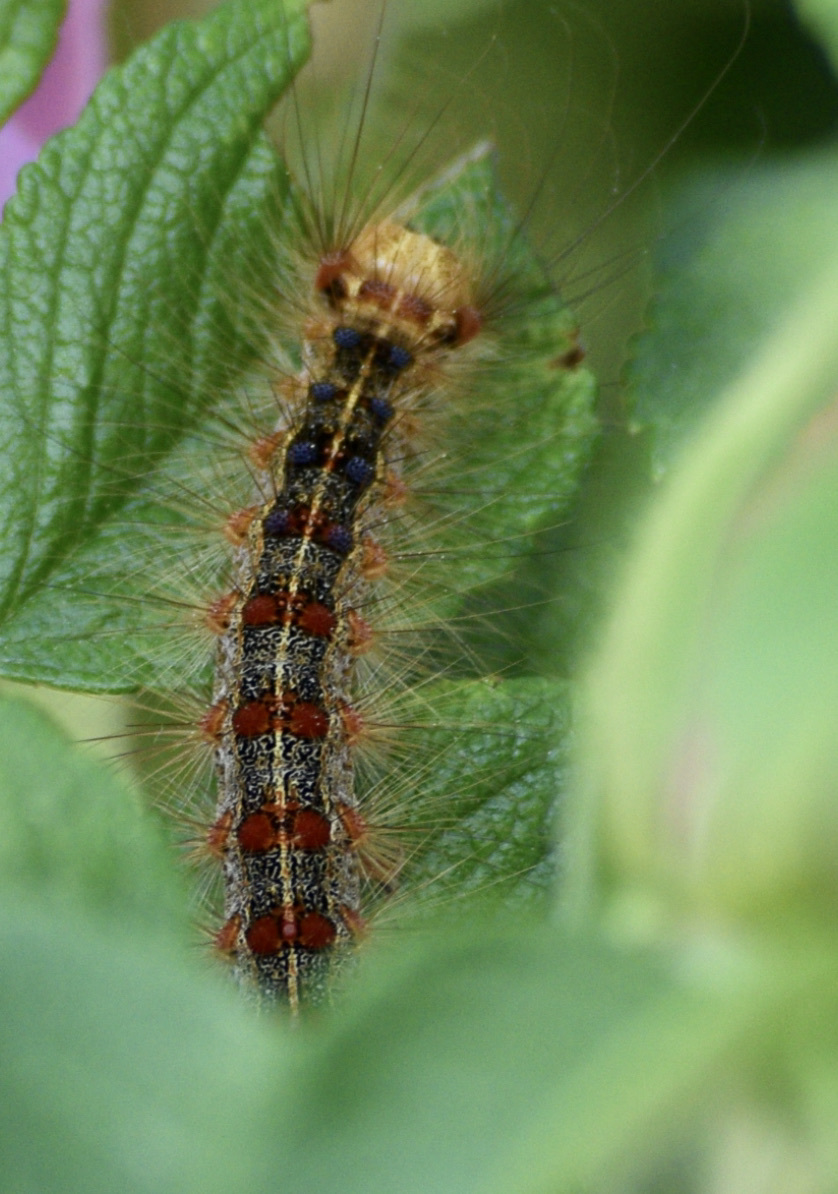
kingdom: Animalia
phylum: Arthropoda
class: Insecta
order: Lepidoptera
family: Erebidae
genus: Lymantria
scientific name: Lymantria dispar
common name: Gypsy moth
